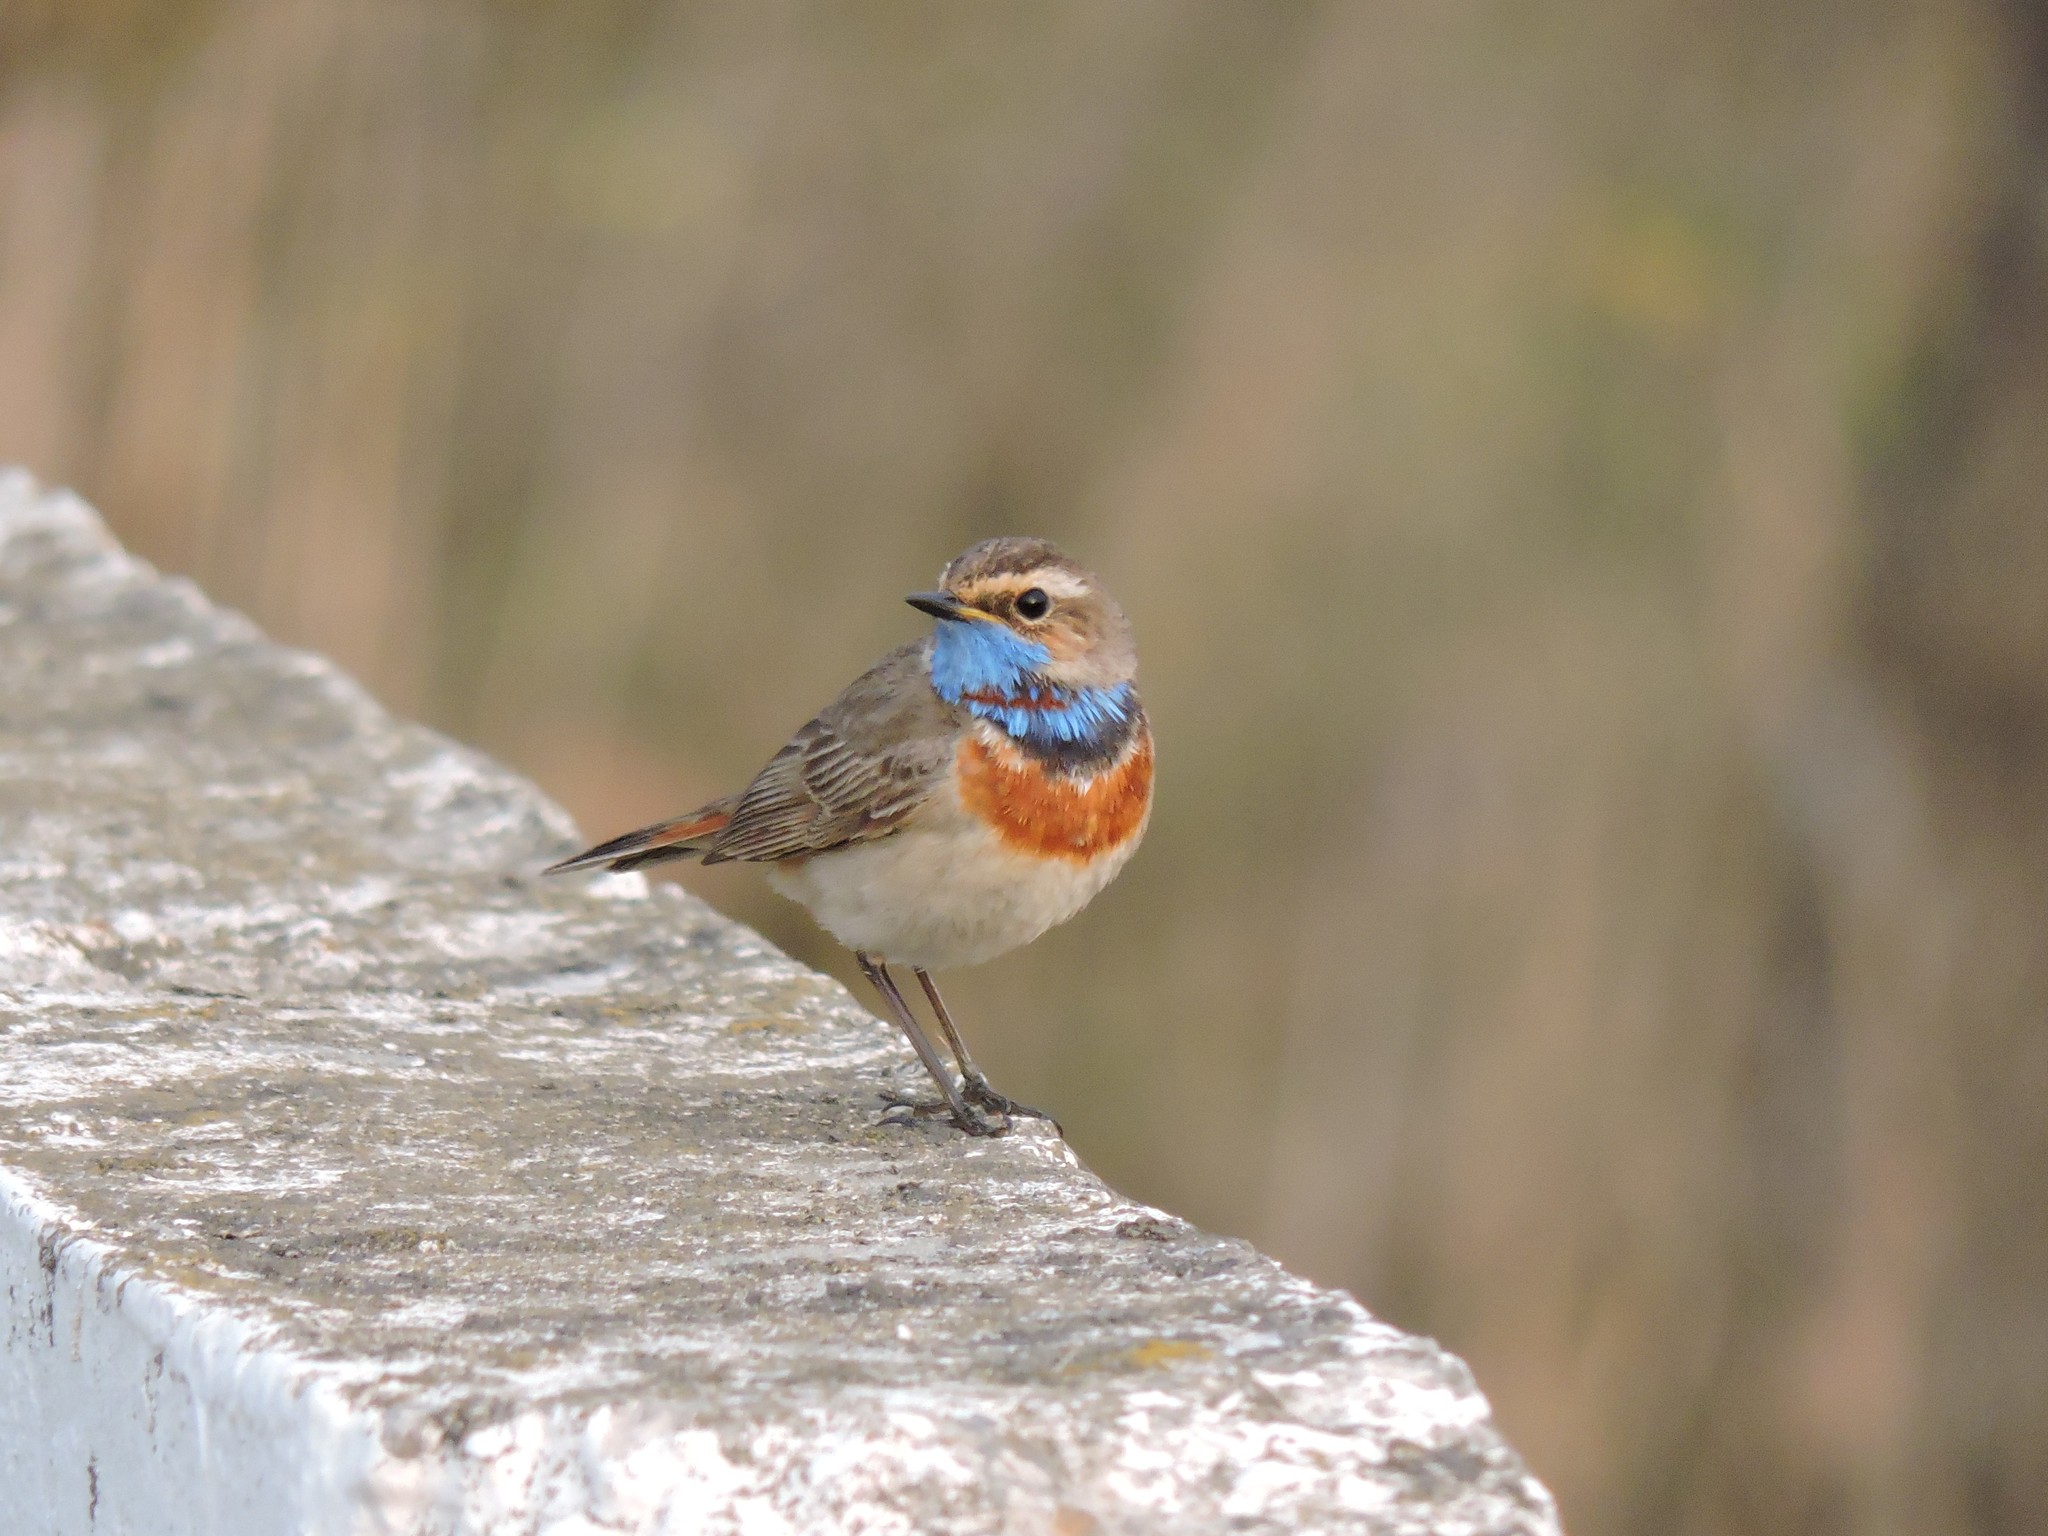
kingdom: Animalia
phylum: Chordata
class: Aves
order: Passeriformes
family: Muscicapidae
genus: Luscinia
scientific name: Luscinia svecica
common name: Bluethroat
